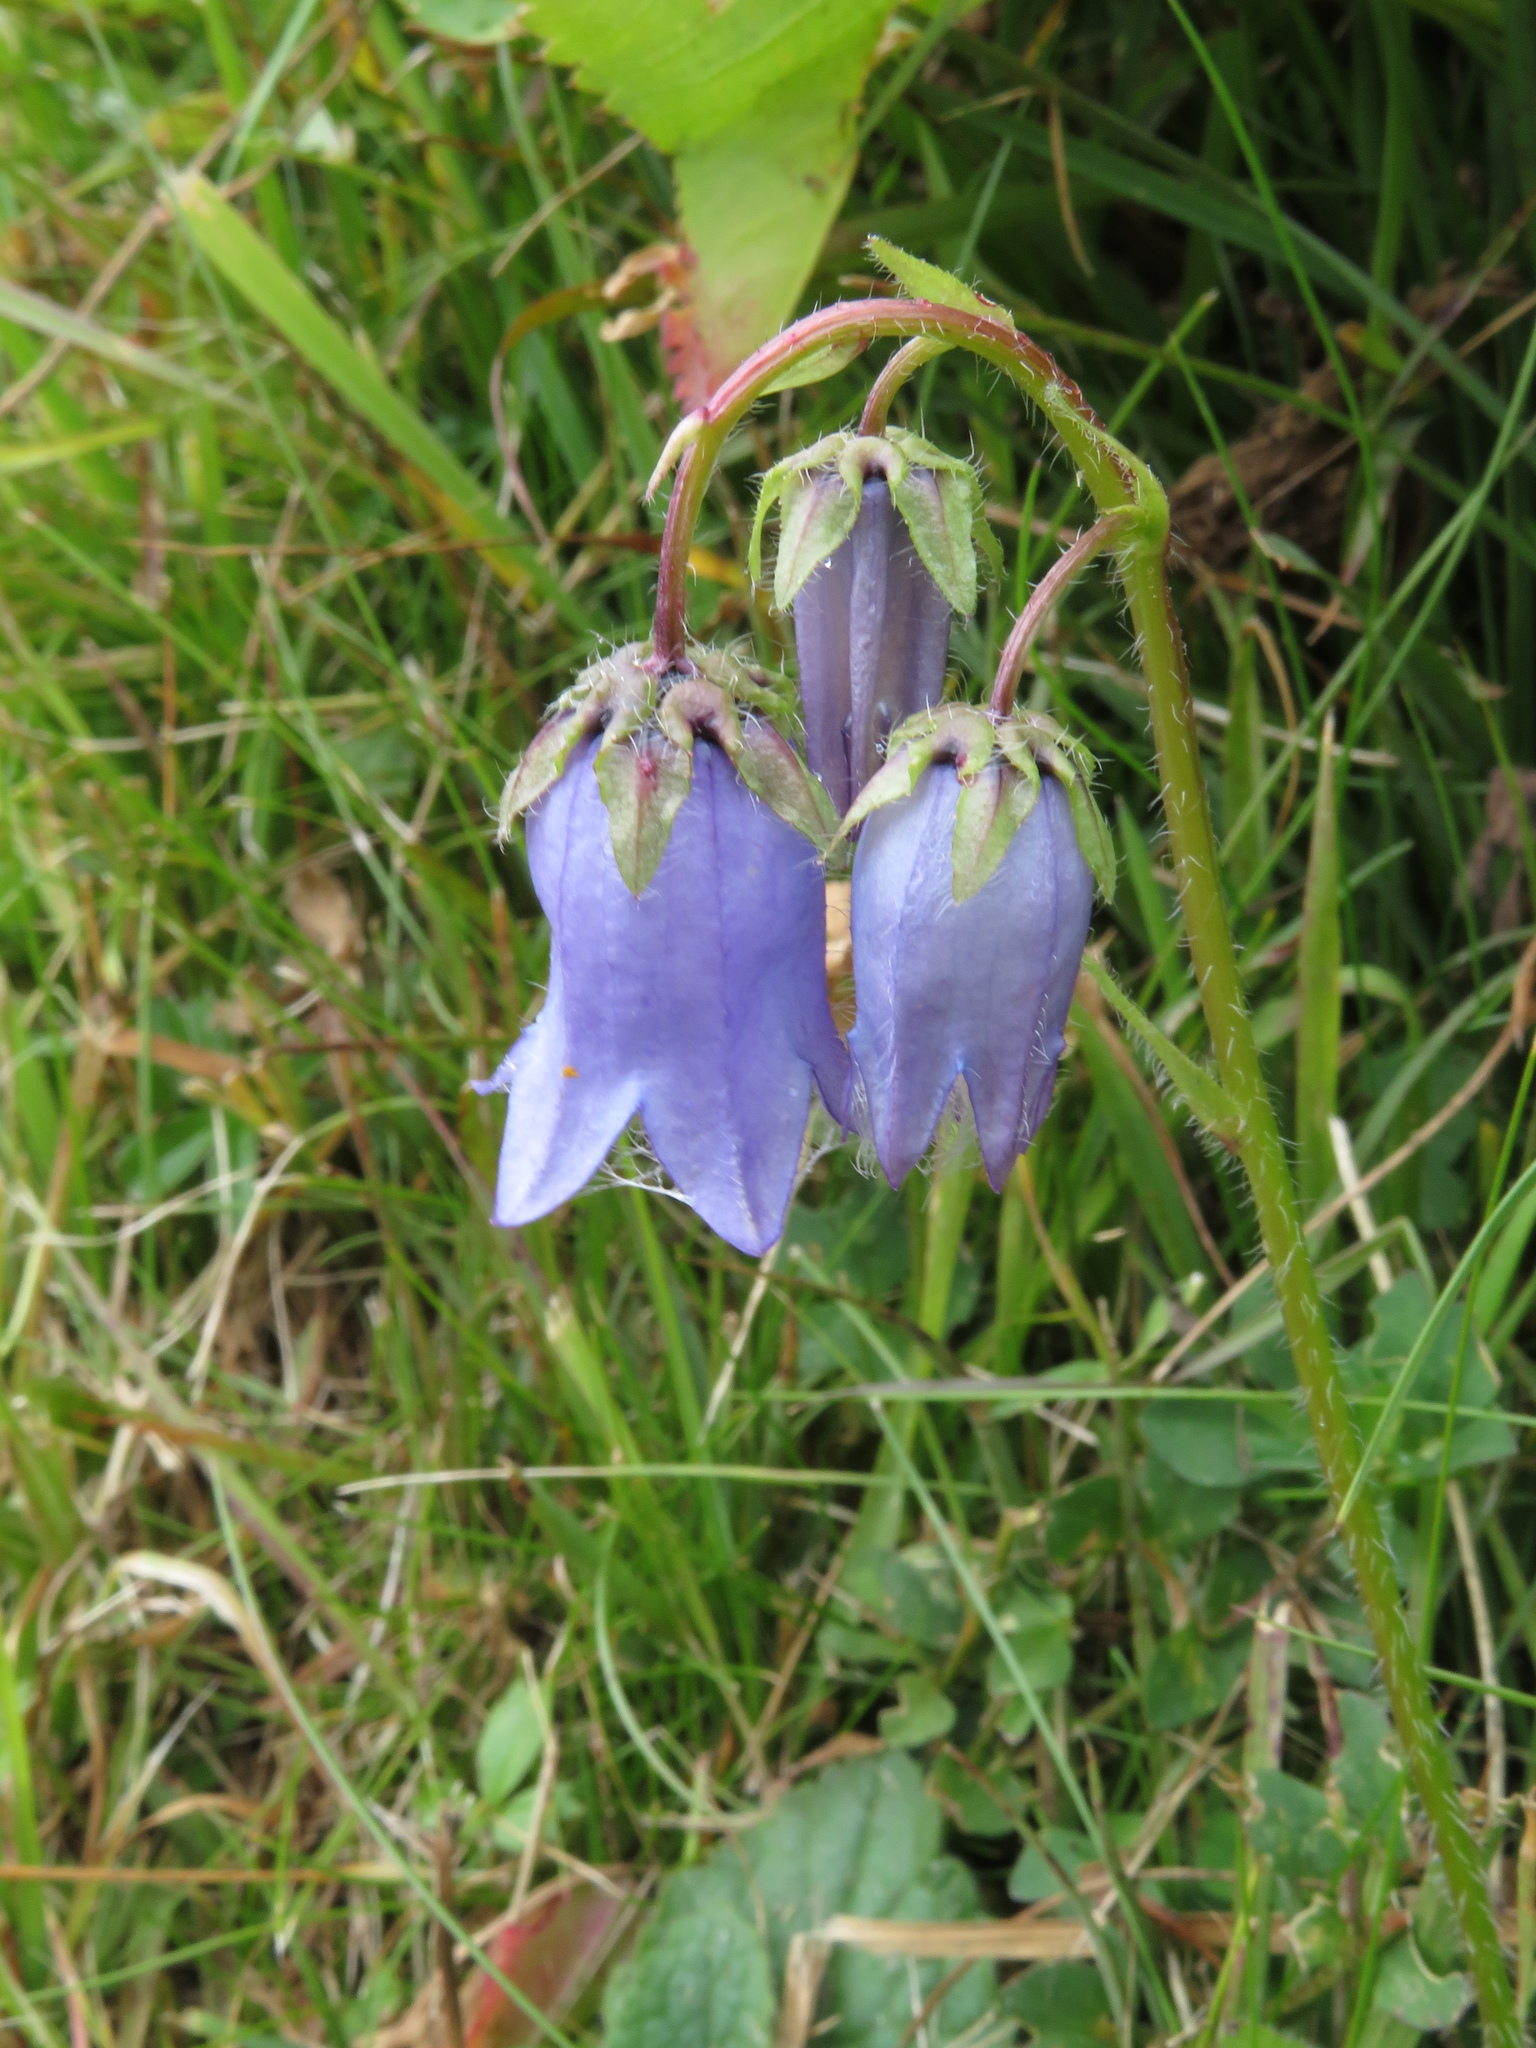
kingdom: Plantae
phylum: Tracheophyta
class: Magnoliopsida
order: Asterales
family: Campanulaceae
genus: Campanula
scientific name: Campanula barbata
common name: Bearded bellflower
